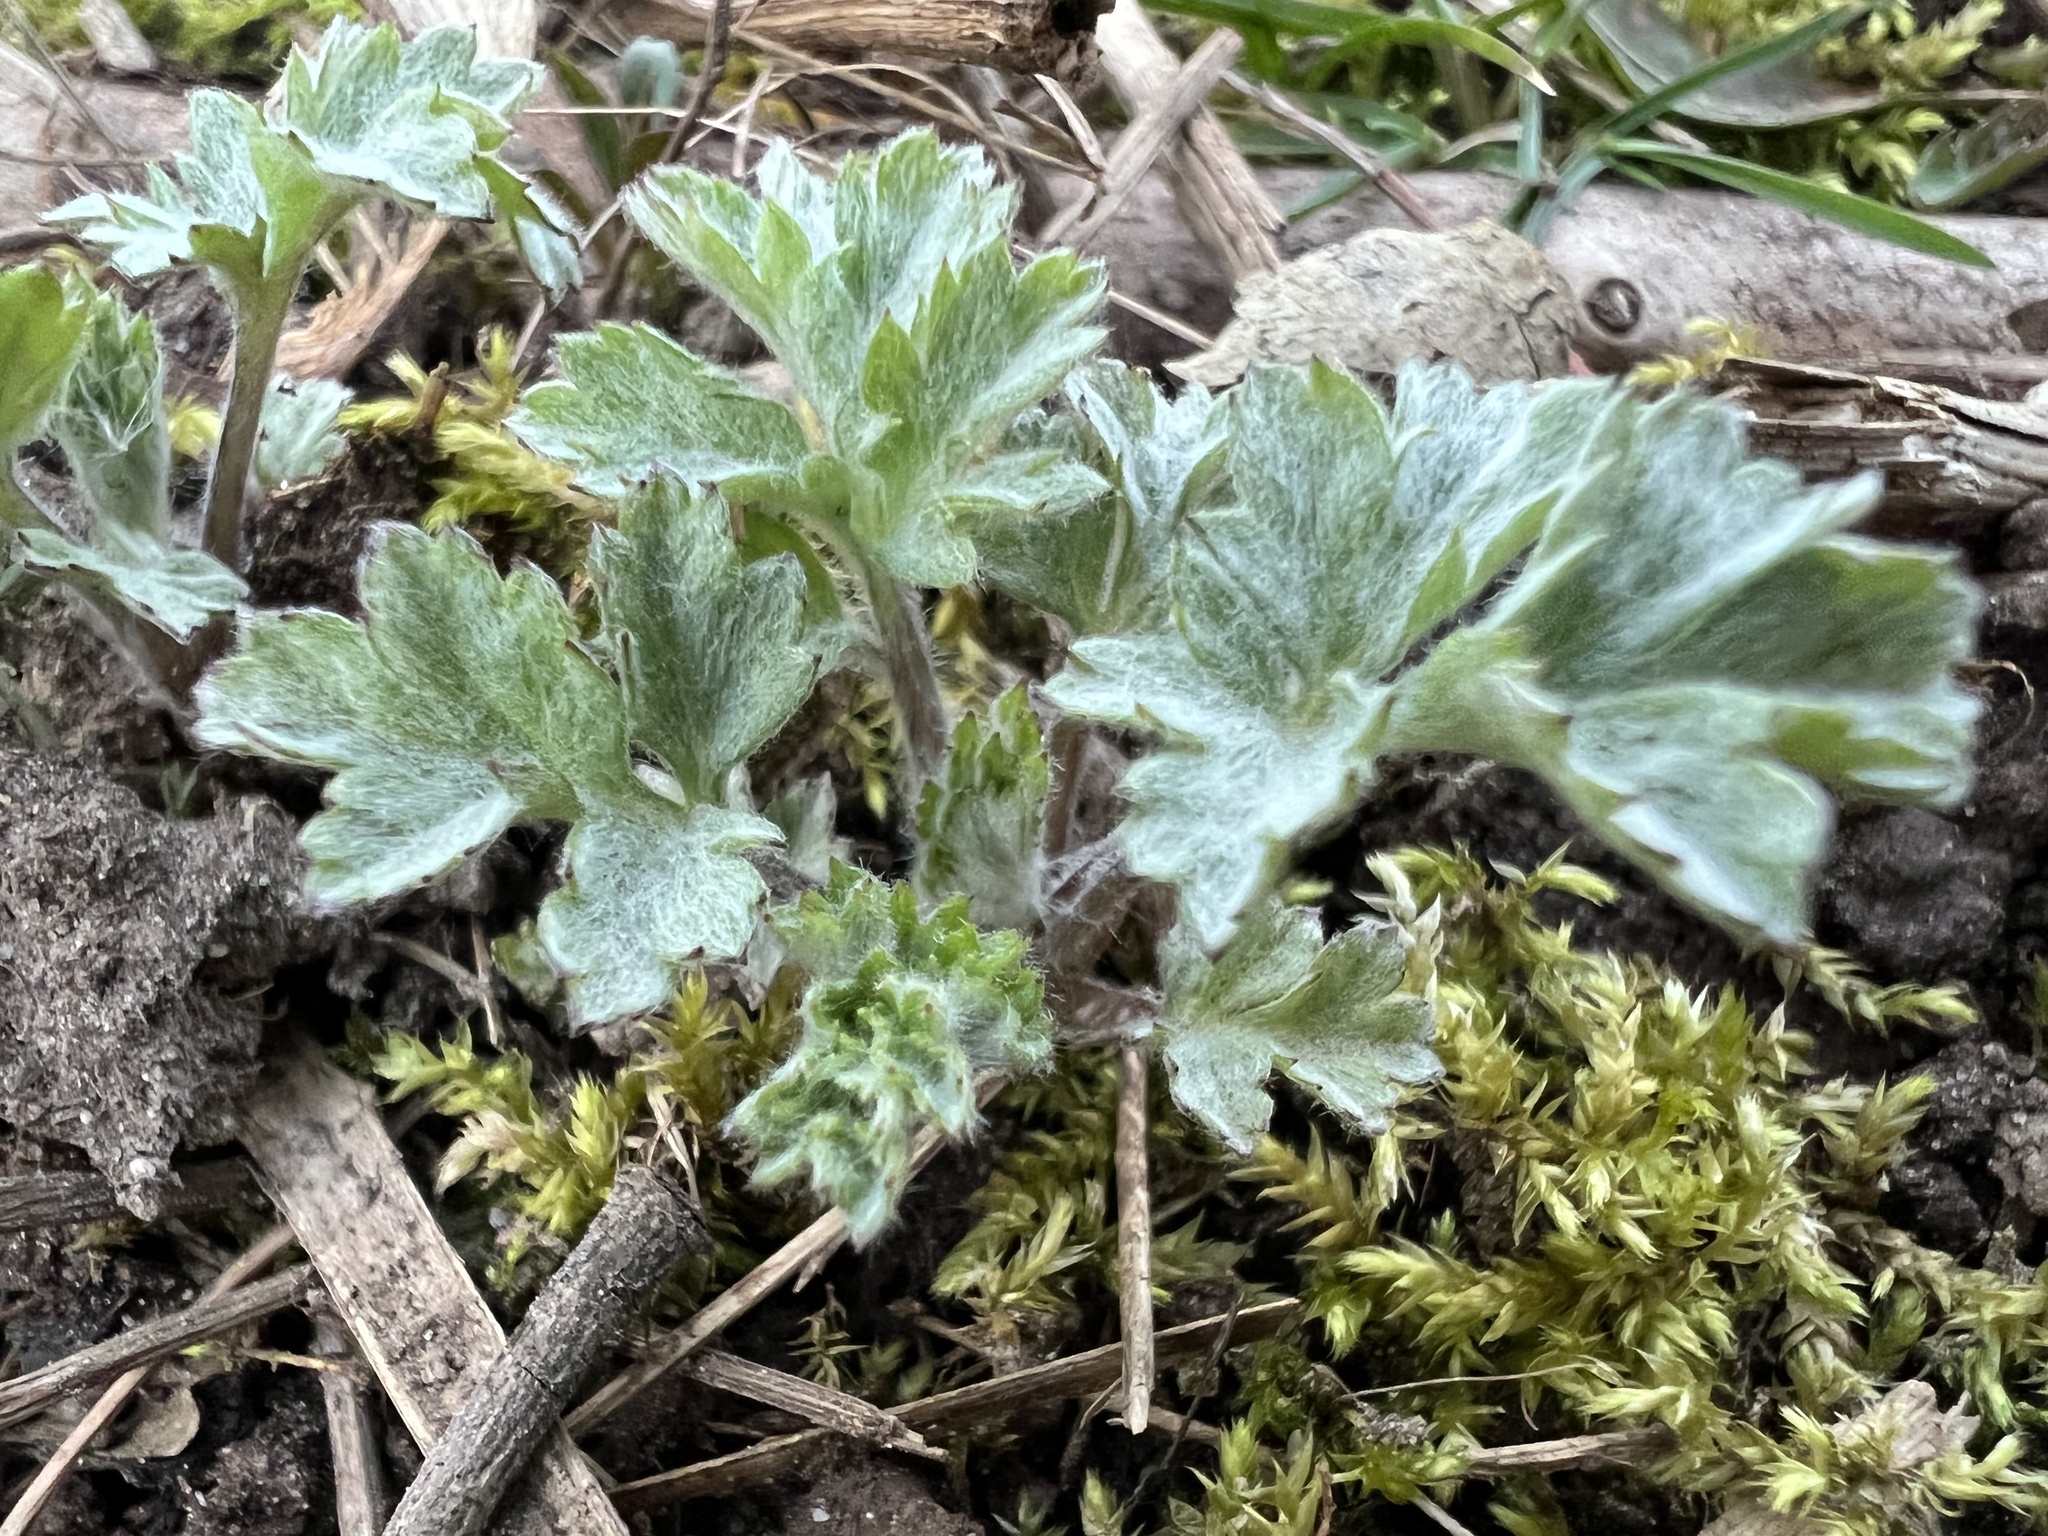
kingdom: Plantae
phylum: Tracheophyta
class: Magnoliopsida
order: Asterales
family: Asteraceae
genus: Artemisia
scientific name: Artemisia vulgaris
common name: Mugwort
